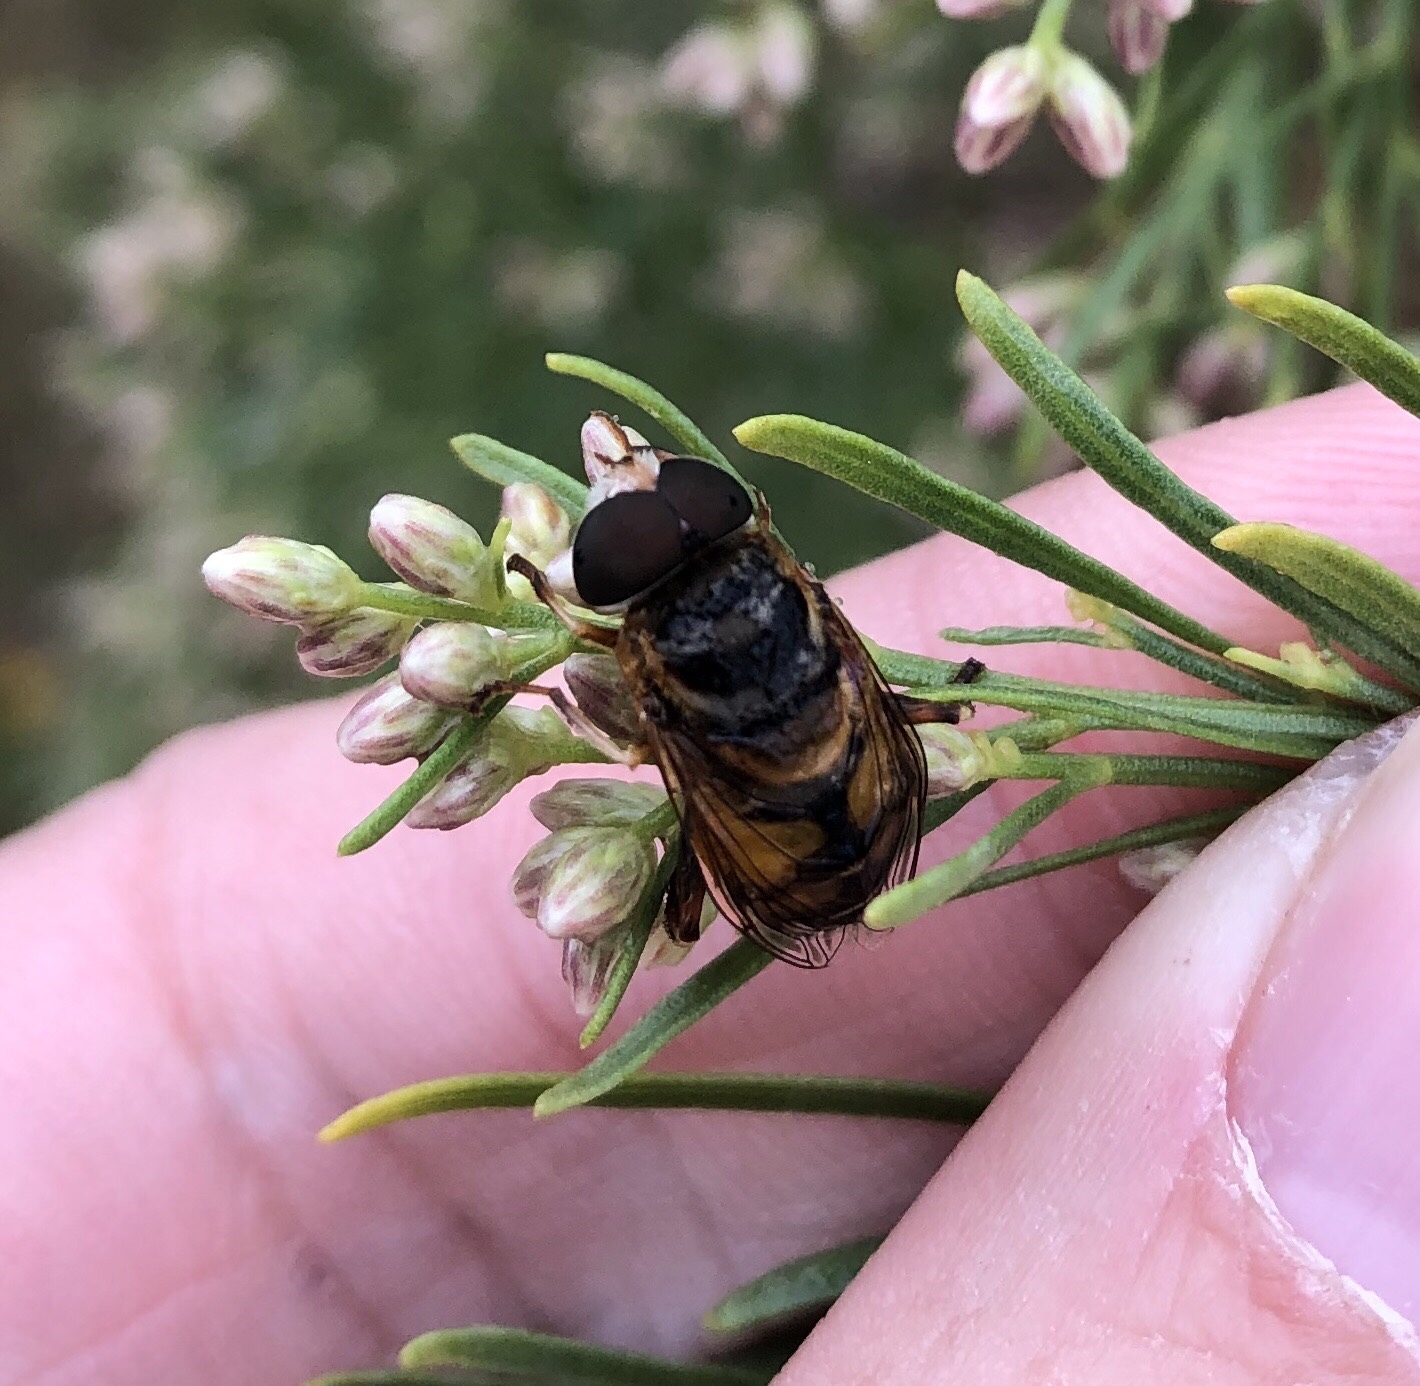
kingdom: Animalia
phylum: Arthropoda
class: Insecta
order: Diptera
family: Syrphidae
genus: Palpada
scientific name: Palpada vinetorum
